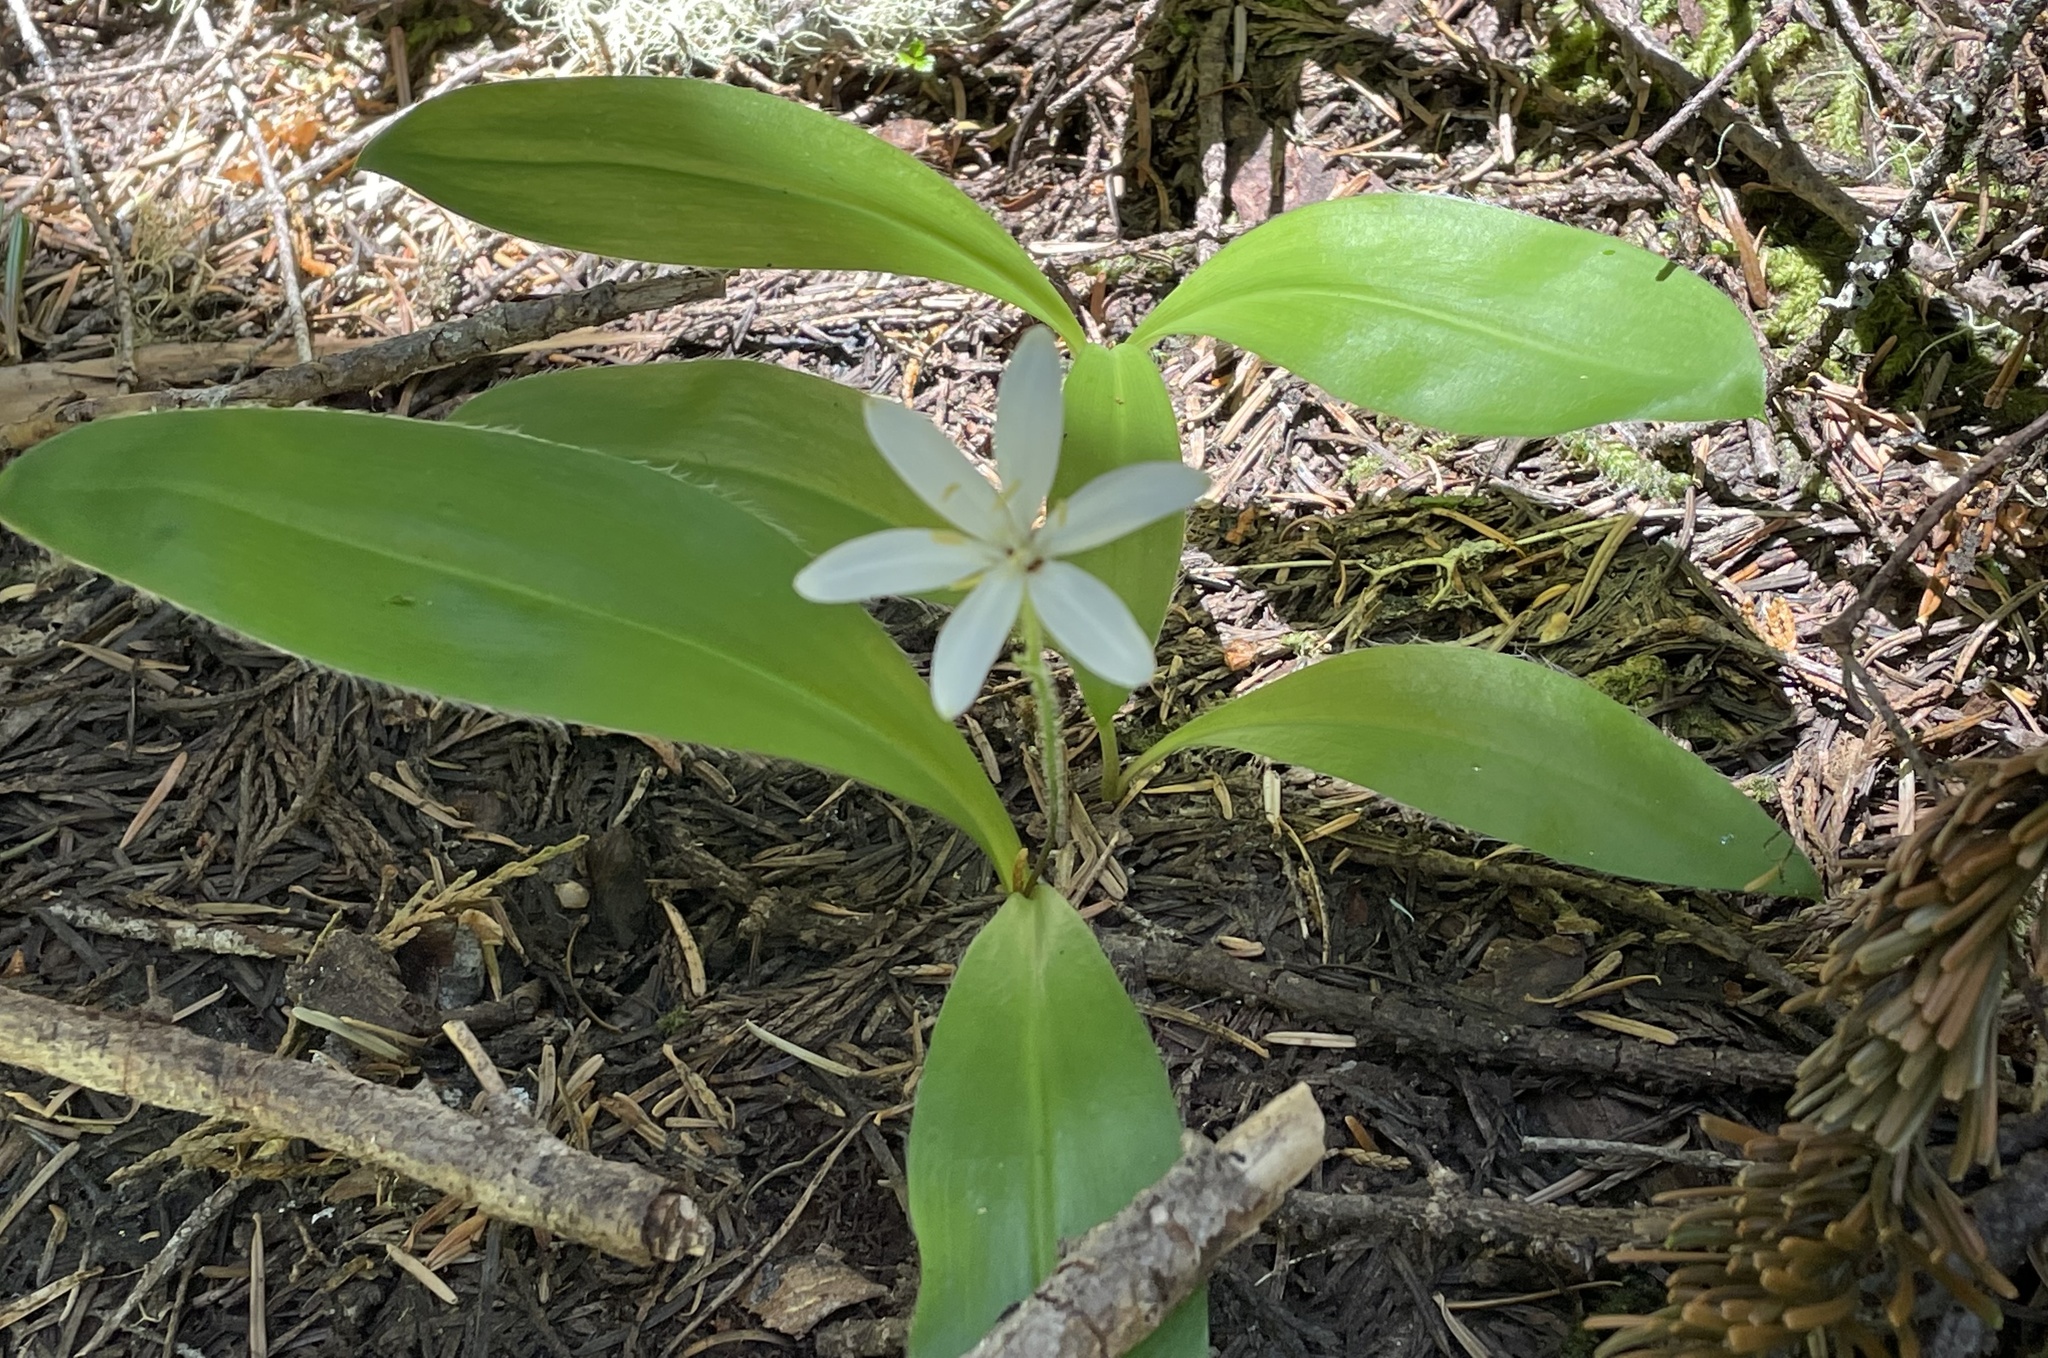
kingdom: Plantae
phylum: Tracheophyta
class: Liliopsida
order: Liliales
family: Liliaceae
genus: Clintonia
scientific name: Clintonia uniflora
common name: Queen's cup
